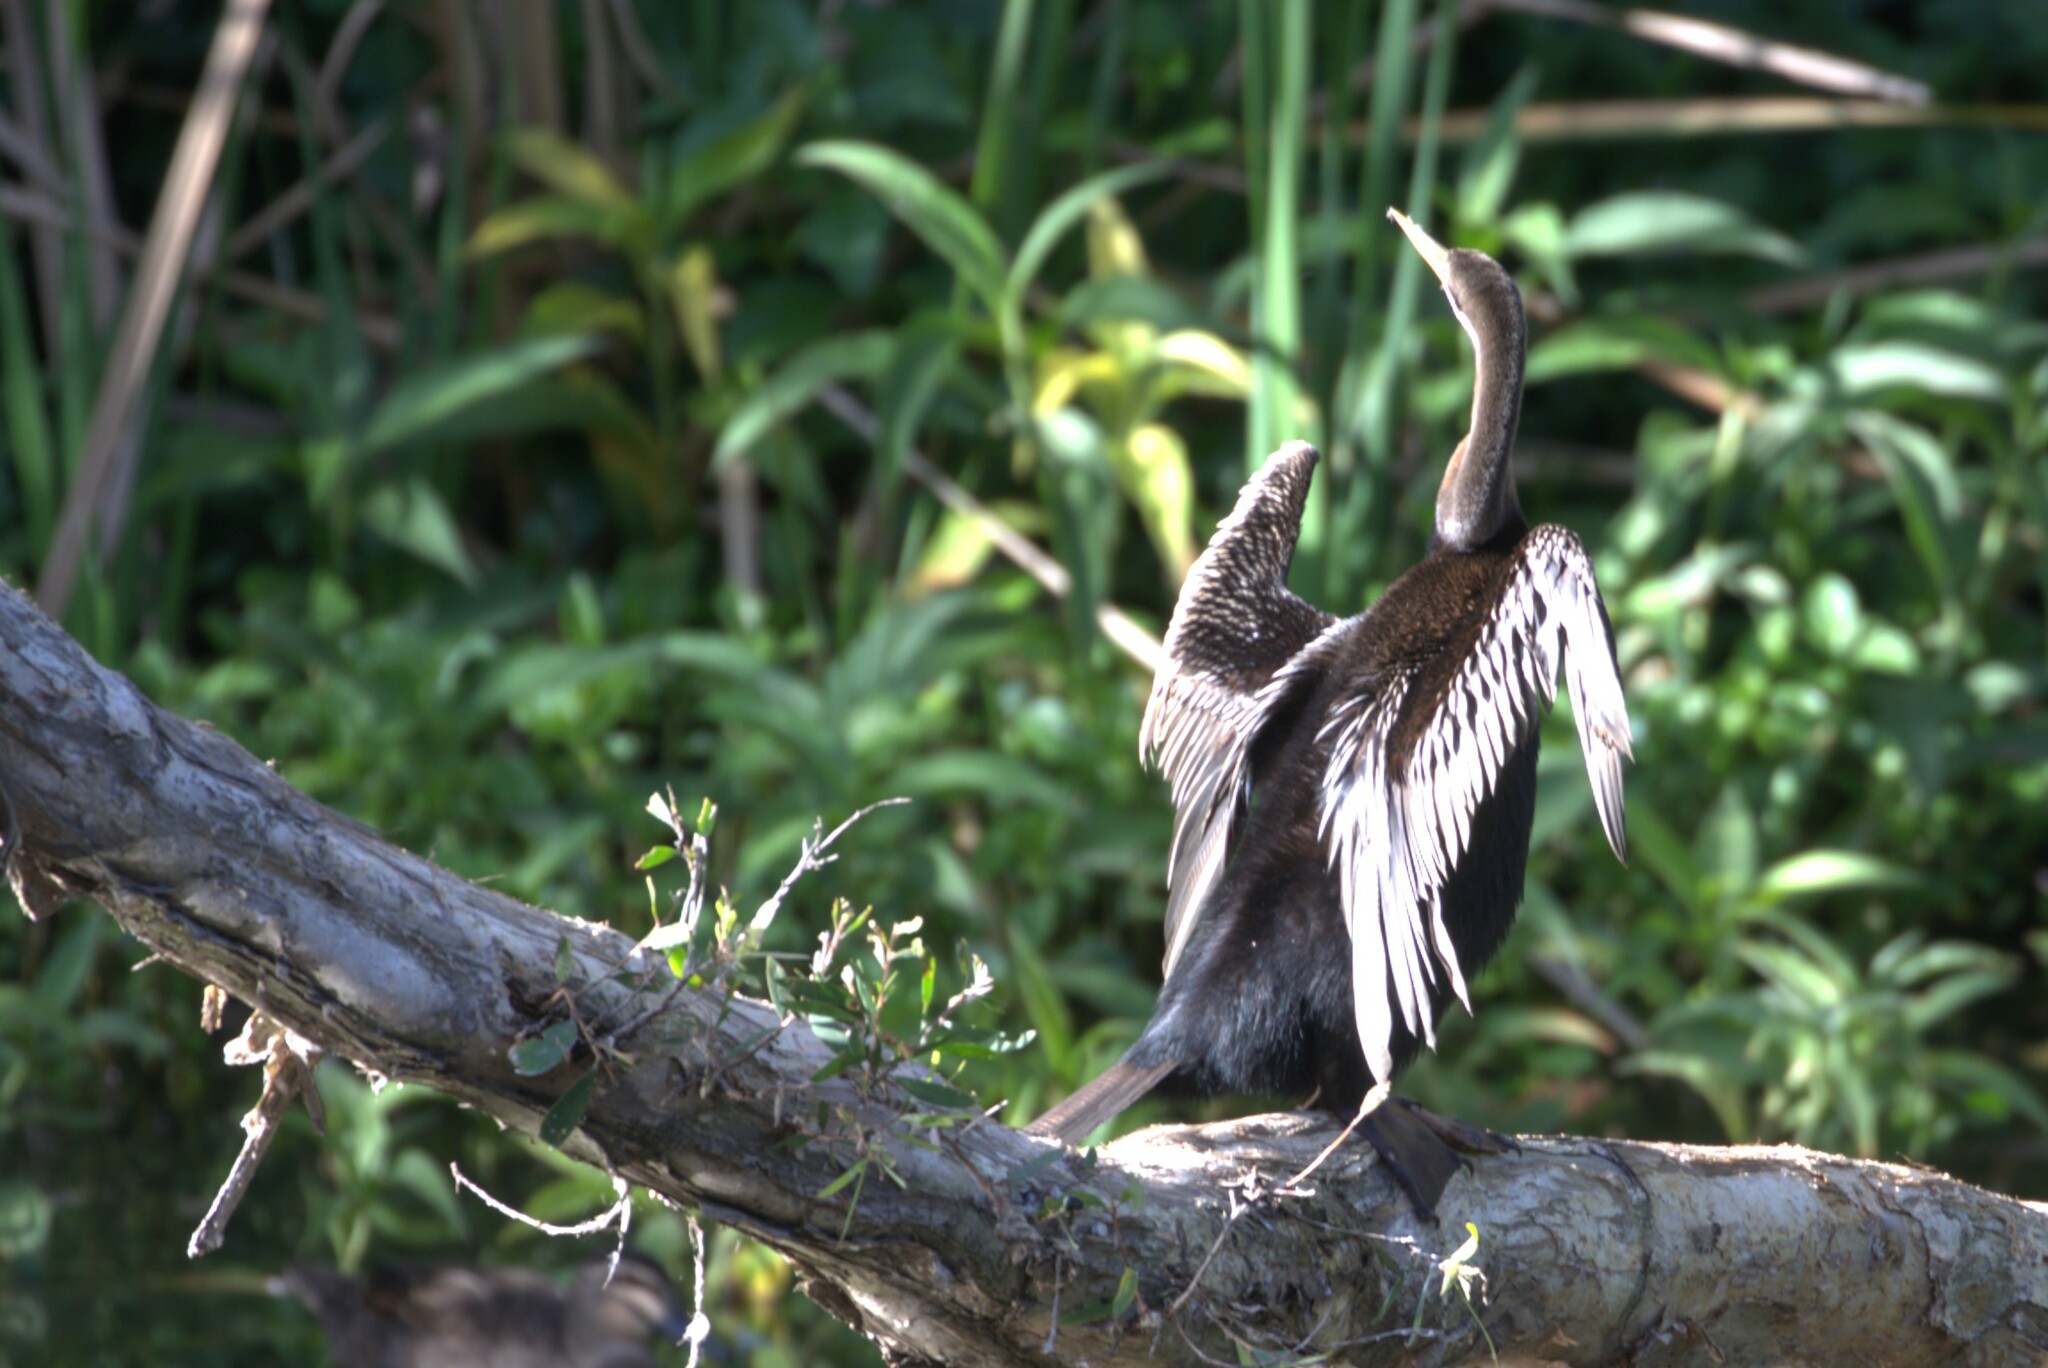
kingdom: Animalia
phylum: Chordata
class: Aves
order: Suliformes
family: Anhingidae
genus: Anhinga
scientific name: Anhinga novaehollandiae
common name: Australasian darter
